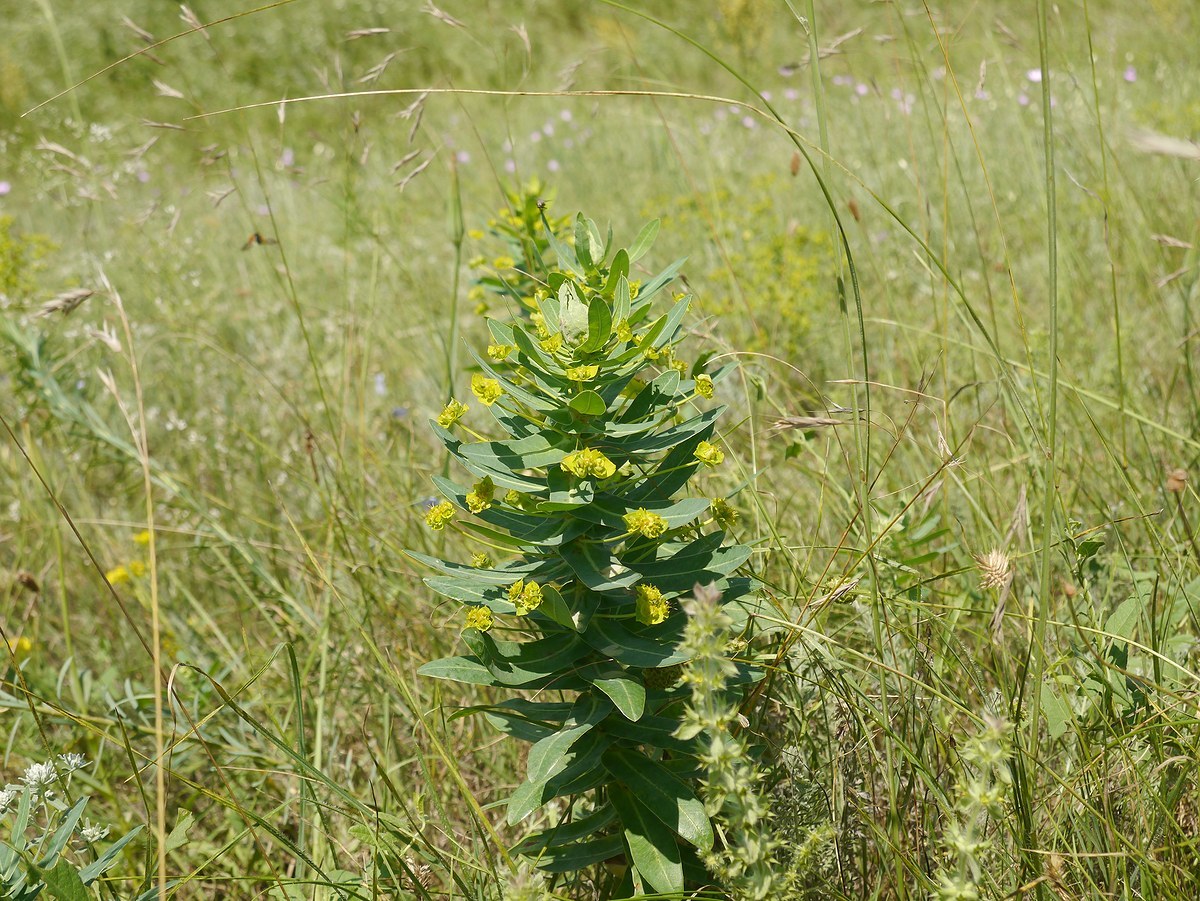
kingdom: Plantae
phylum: Tracheophyta
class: Magnoliopsida
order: Malpighiales
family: Euphorbiaceae
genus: Euphorbia
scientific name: Euphorbia agraria
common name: Urban spurge
